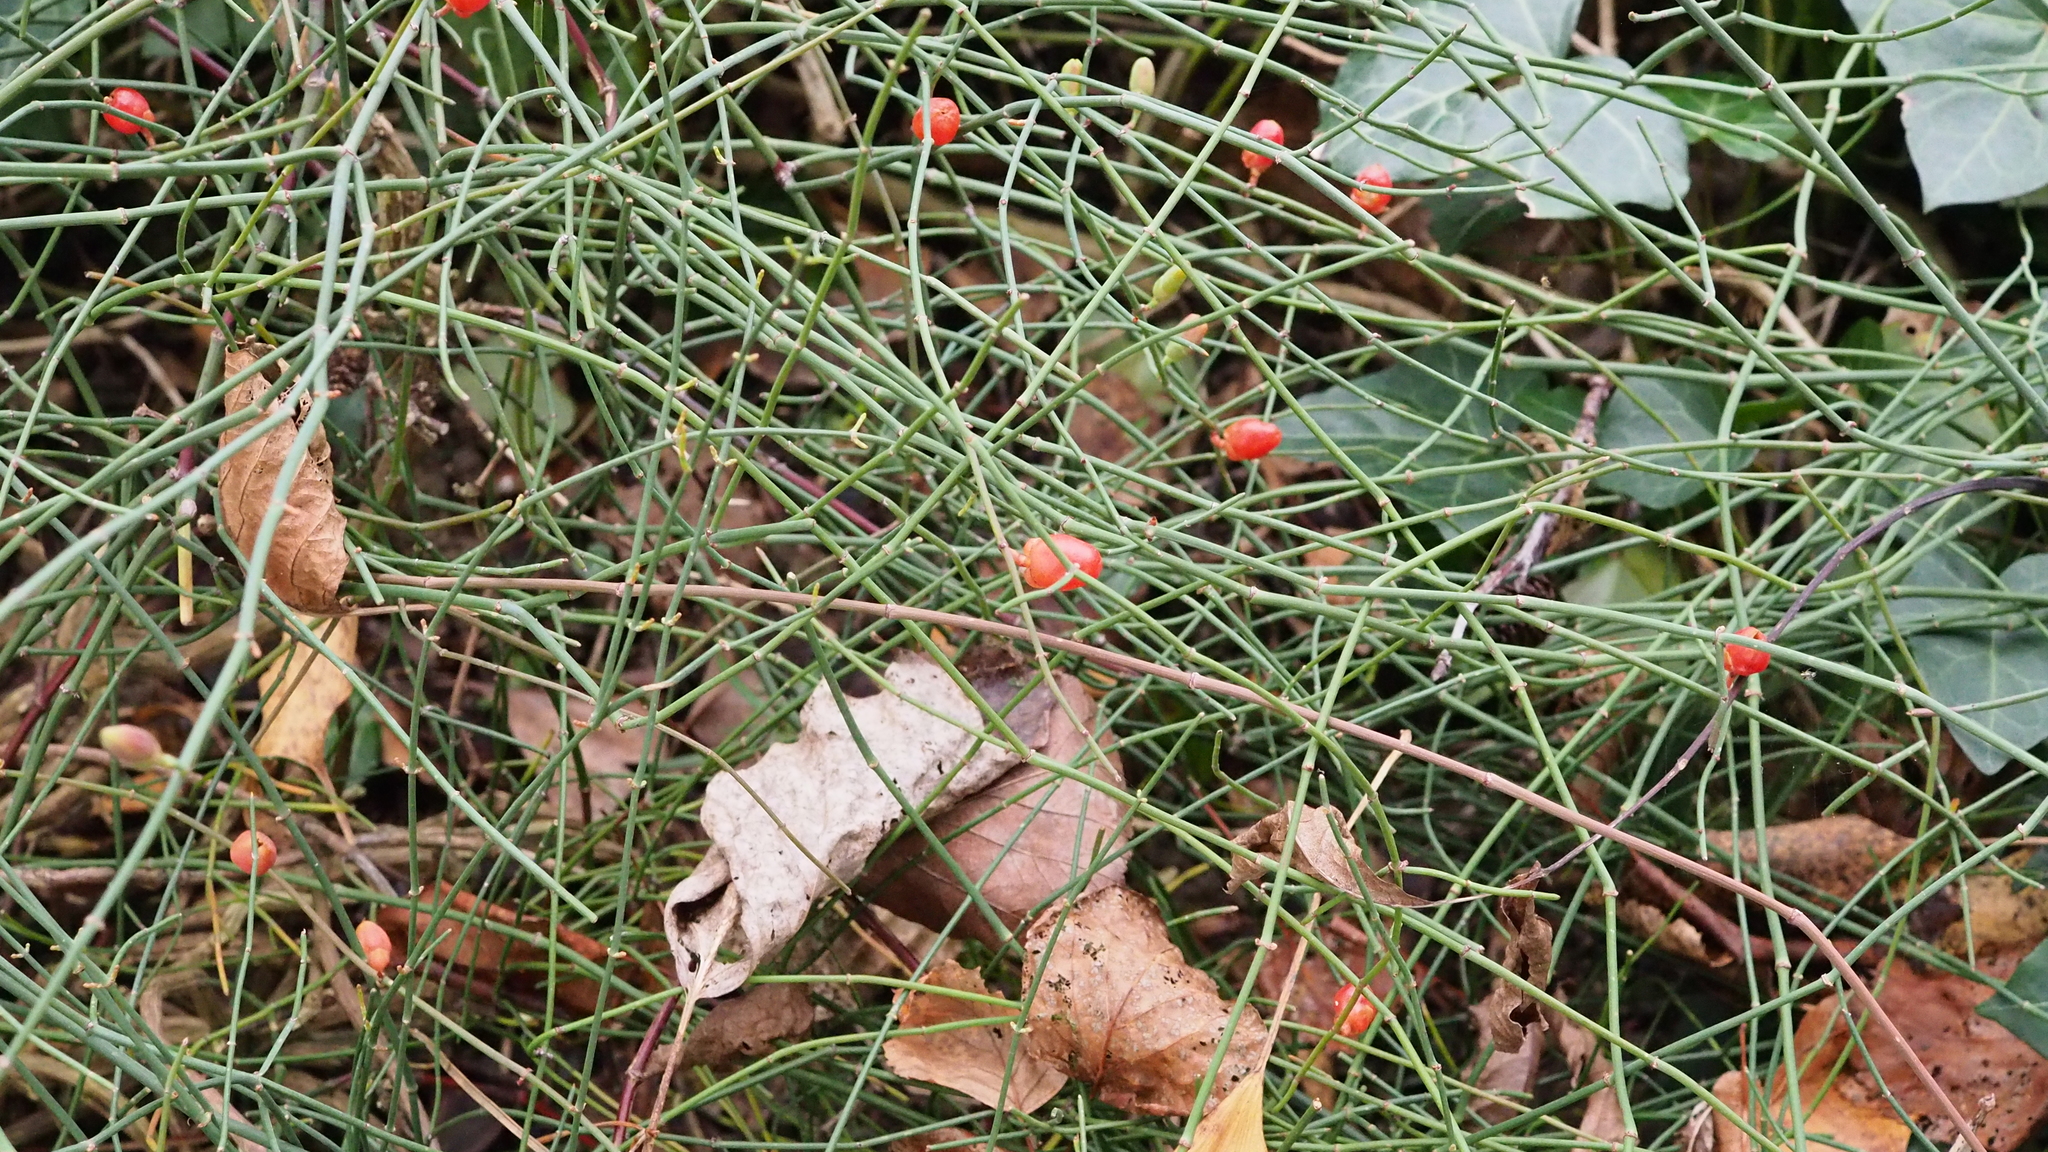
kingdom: Plantae
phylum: Tracheophyta
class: Gnetopsida
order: Ephedrales
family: Ephedraceae
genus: Ephedra
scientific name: Ephedra distachya
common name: Sea grape
